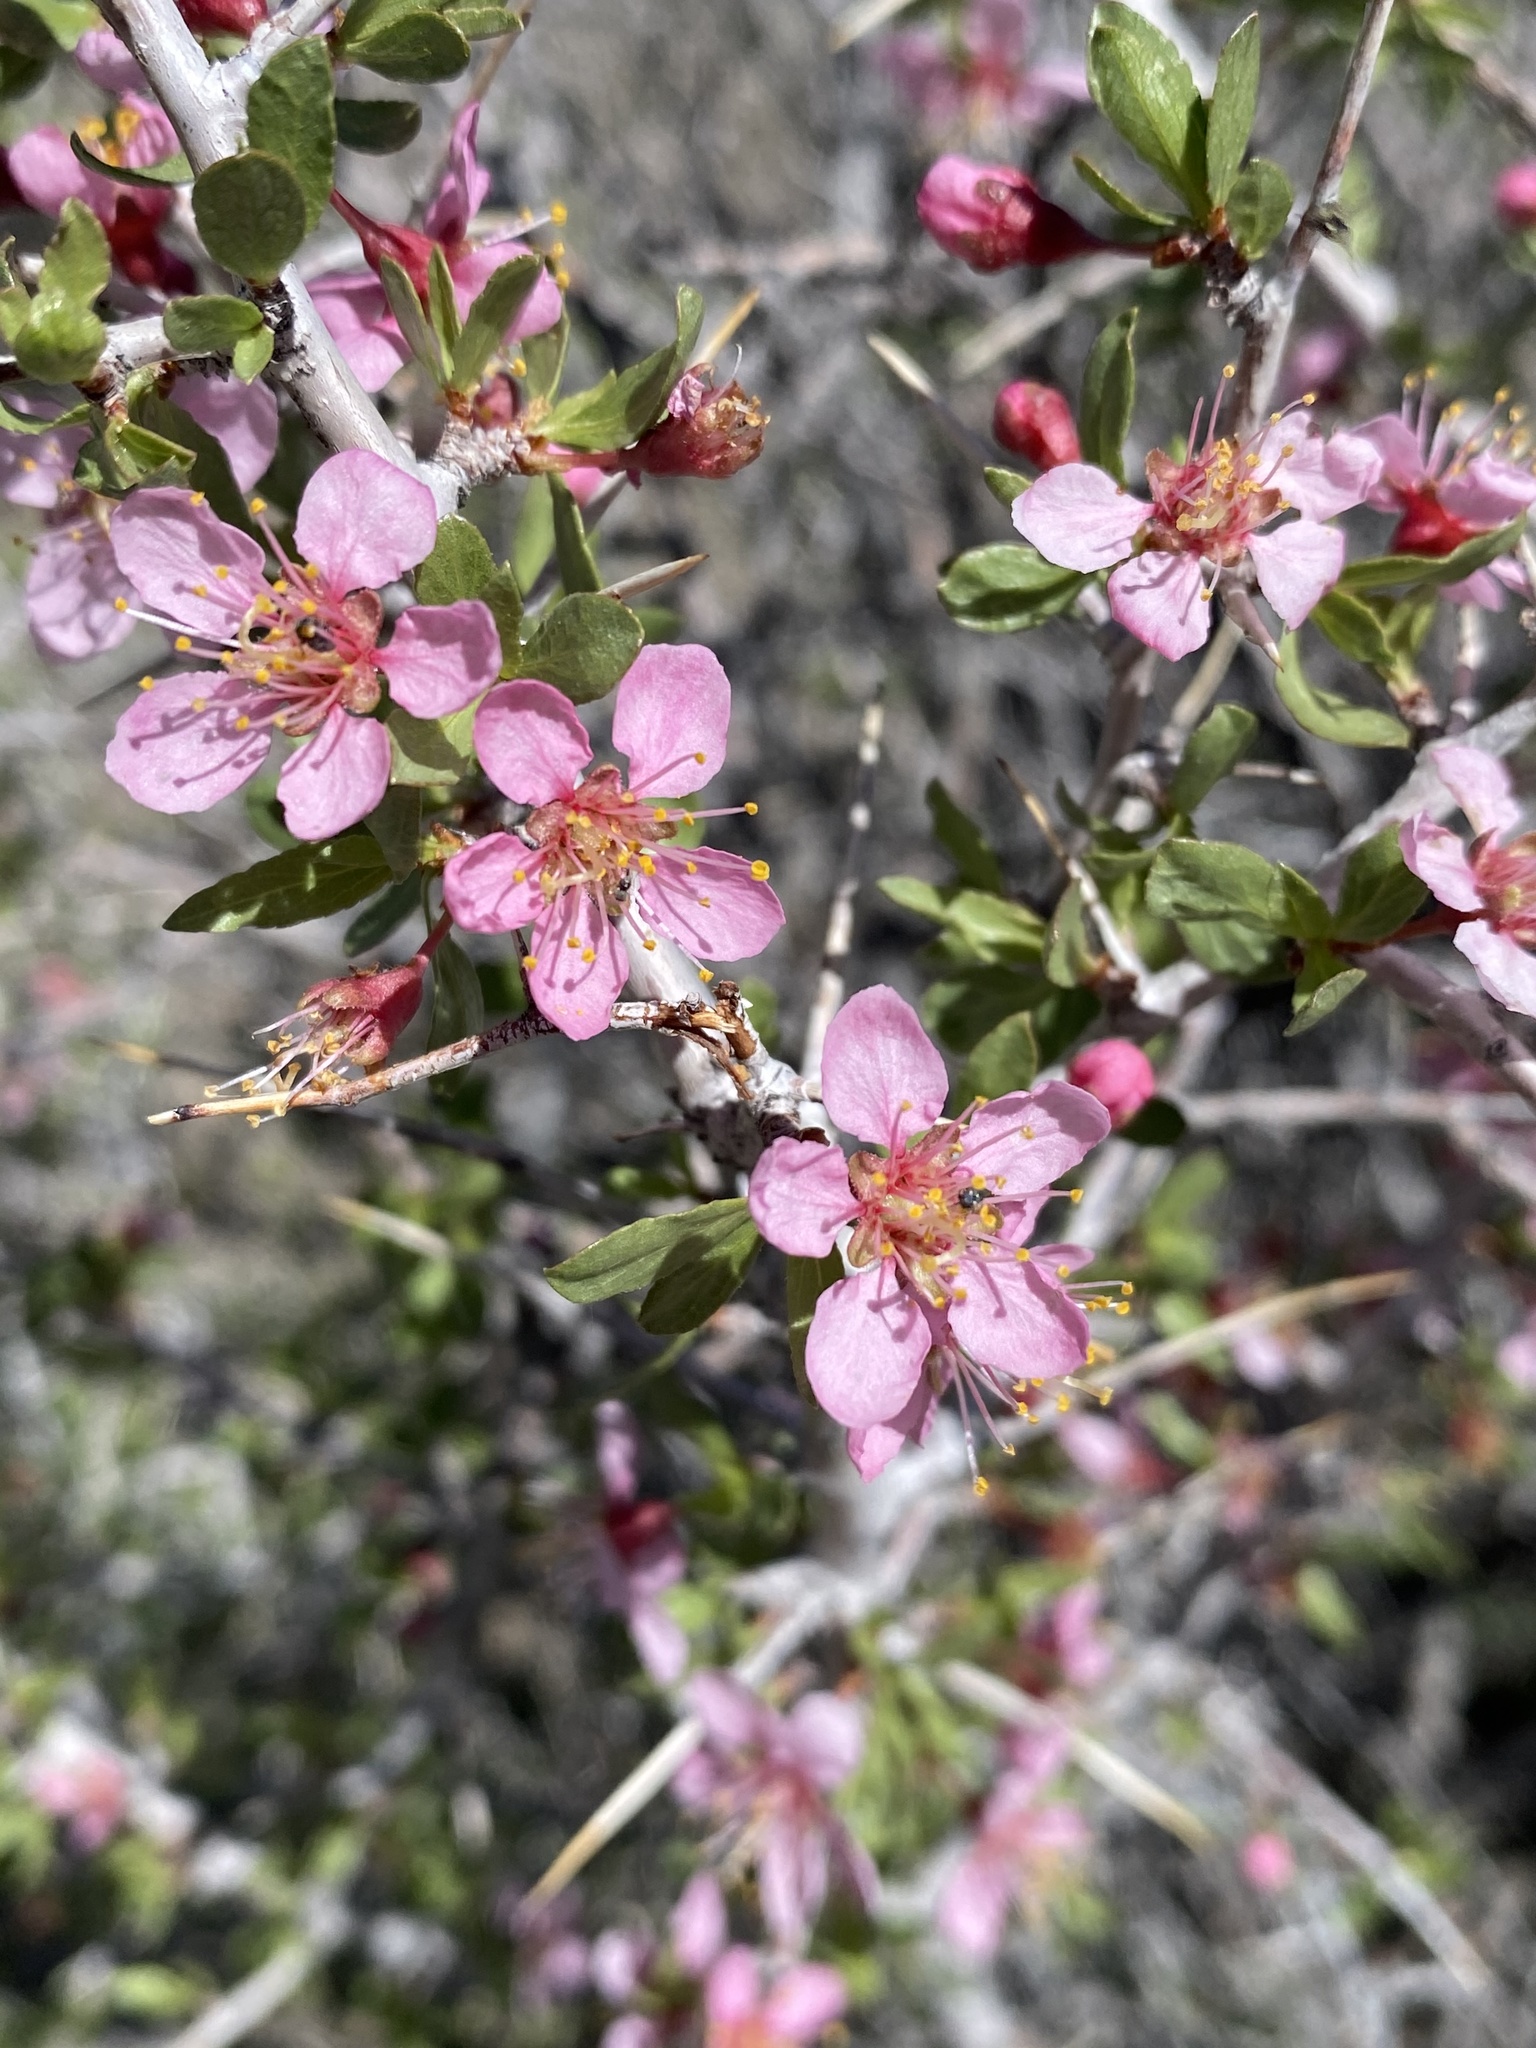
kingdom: Plantae
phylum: Tracheophyta
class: Magnoliopsida
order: Rosales
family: Rosaceae
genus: Prunus
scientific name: Prunus andersonii
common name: Desert peach
